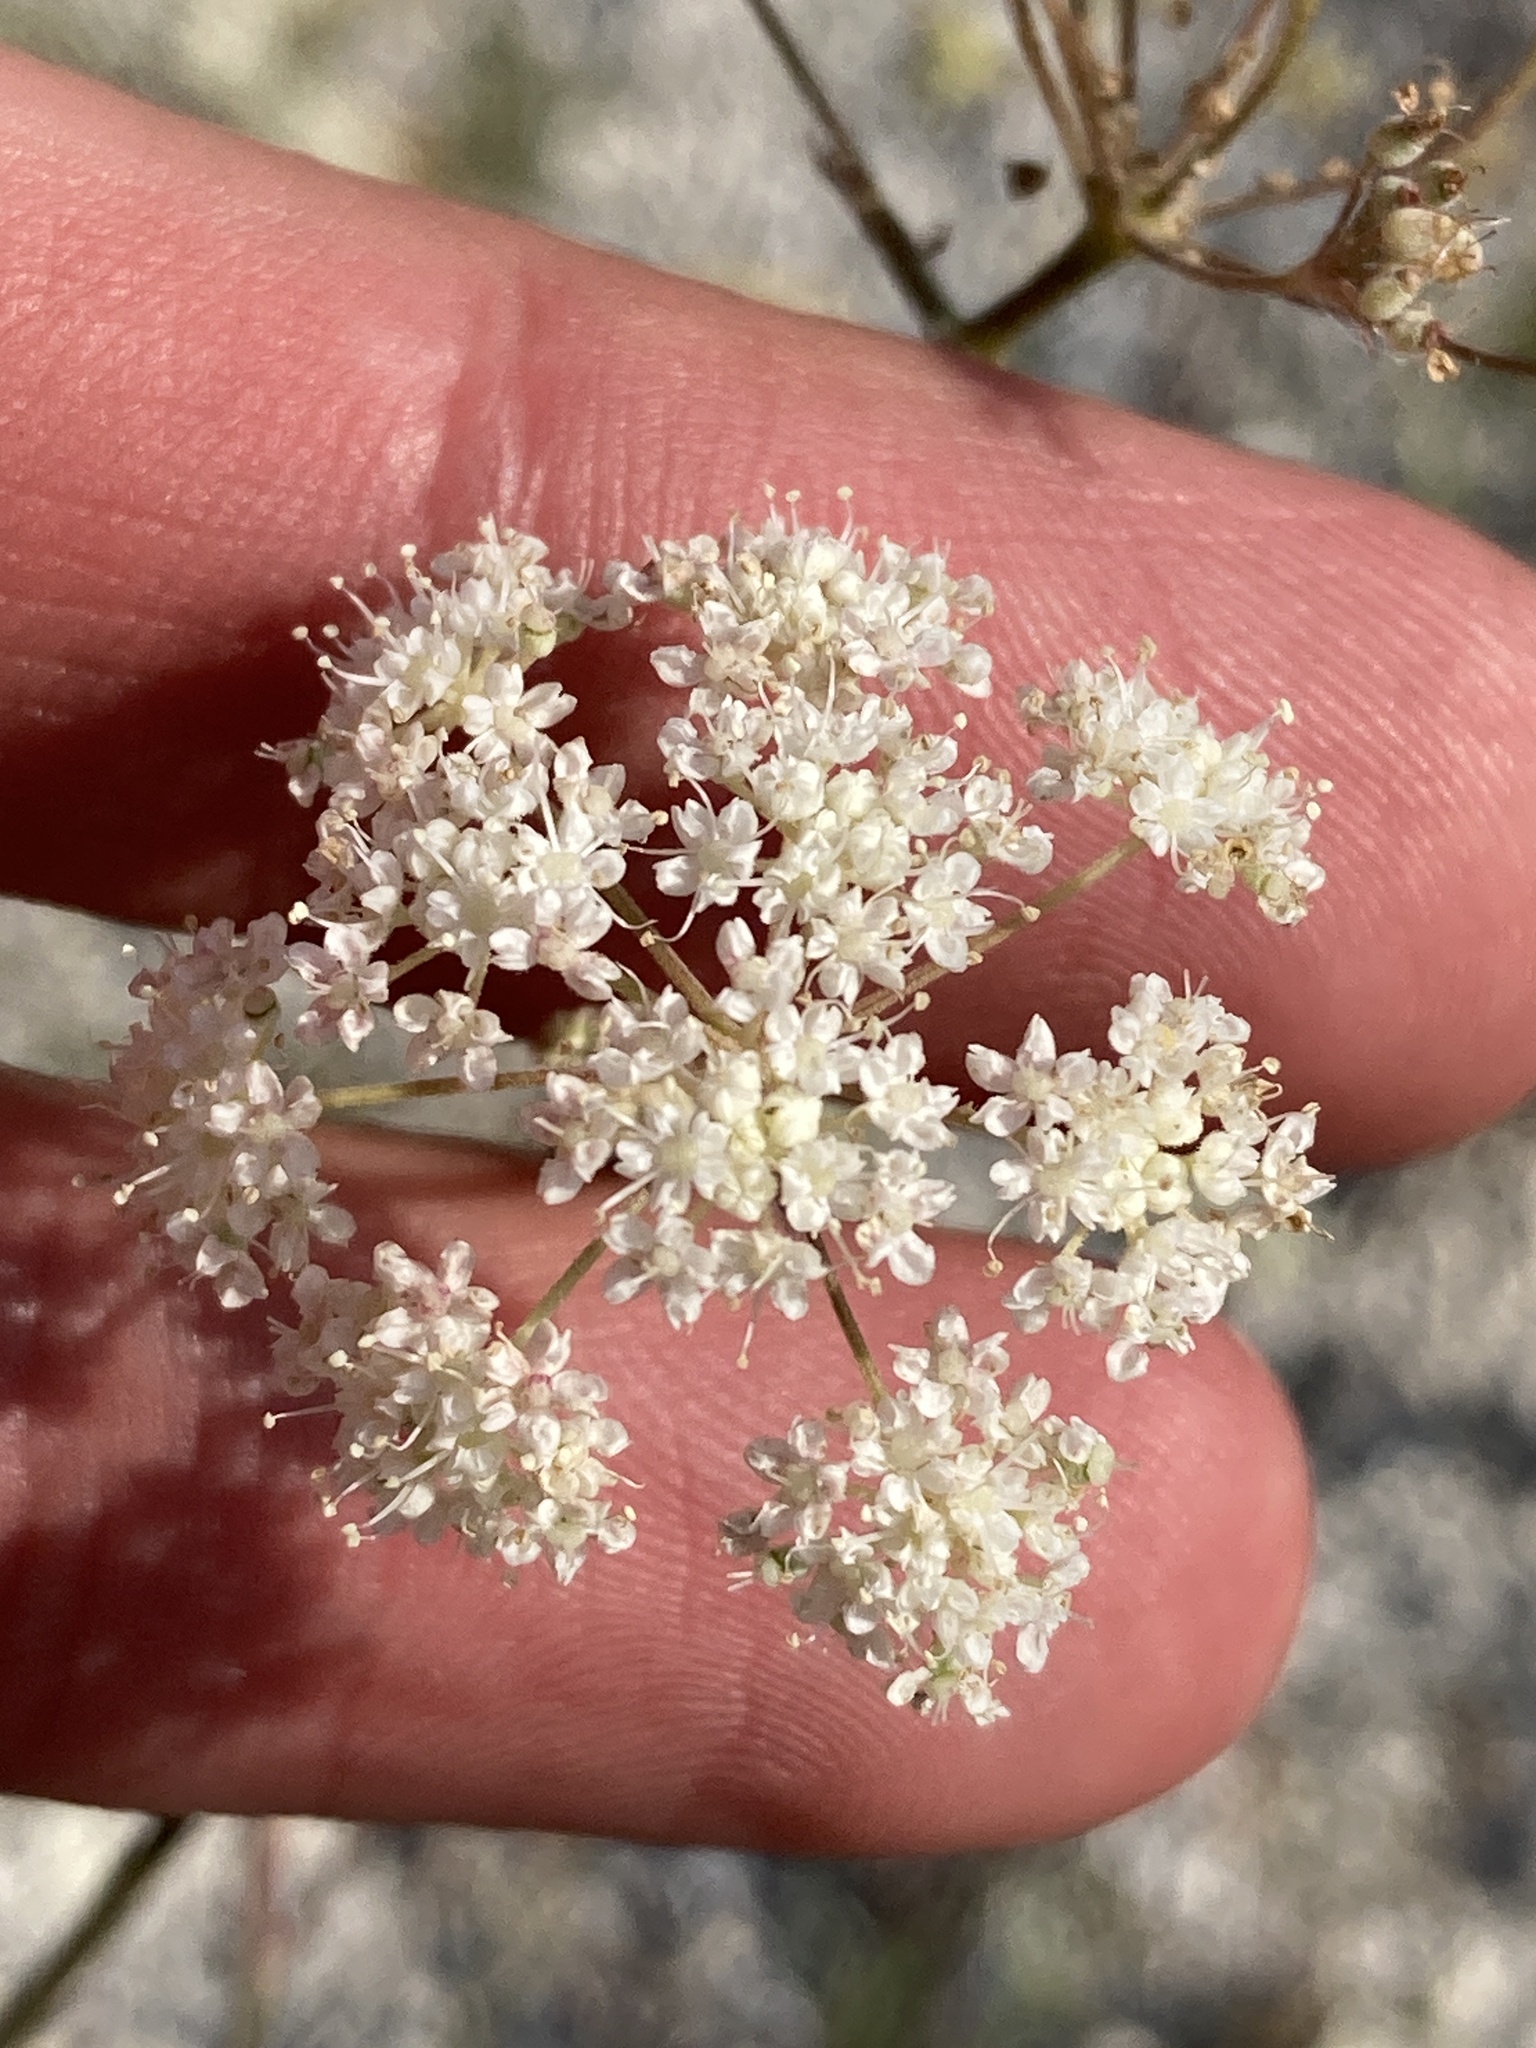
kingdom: Plantae
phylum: Tracheophyta
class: Magnoliopsida
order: Apiales
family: Apiaceae
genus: Pimpinella
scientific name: Pimpinella tragium
